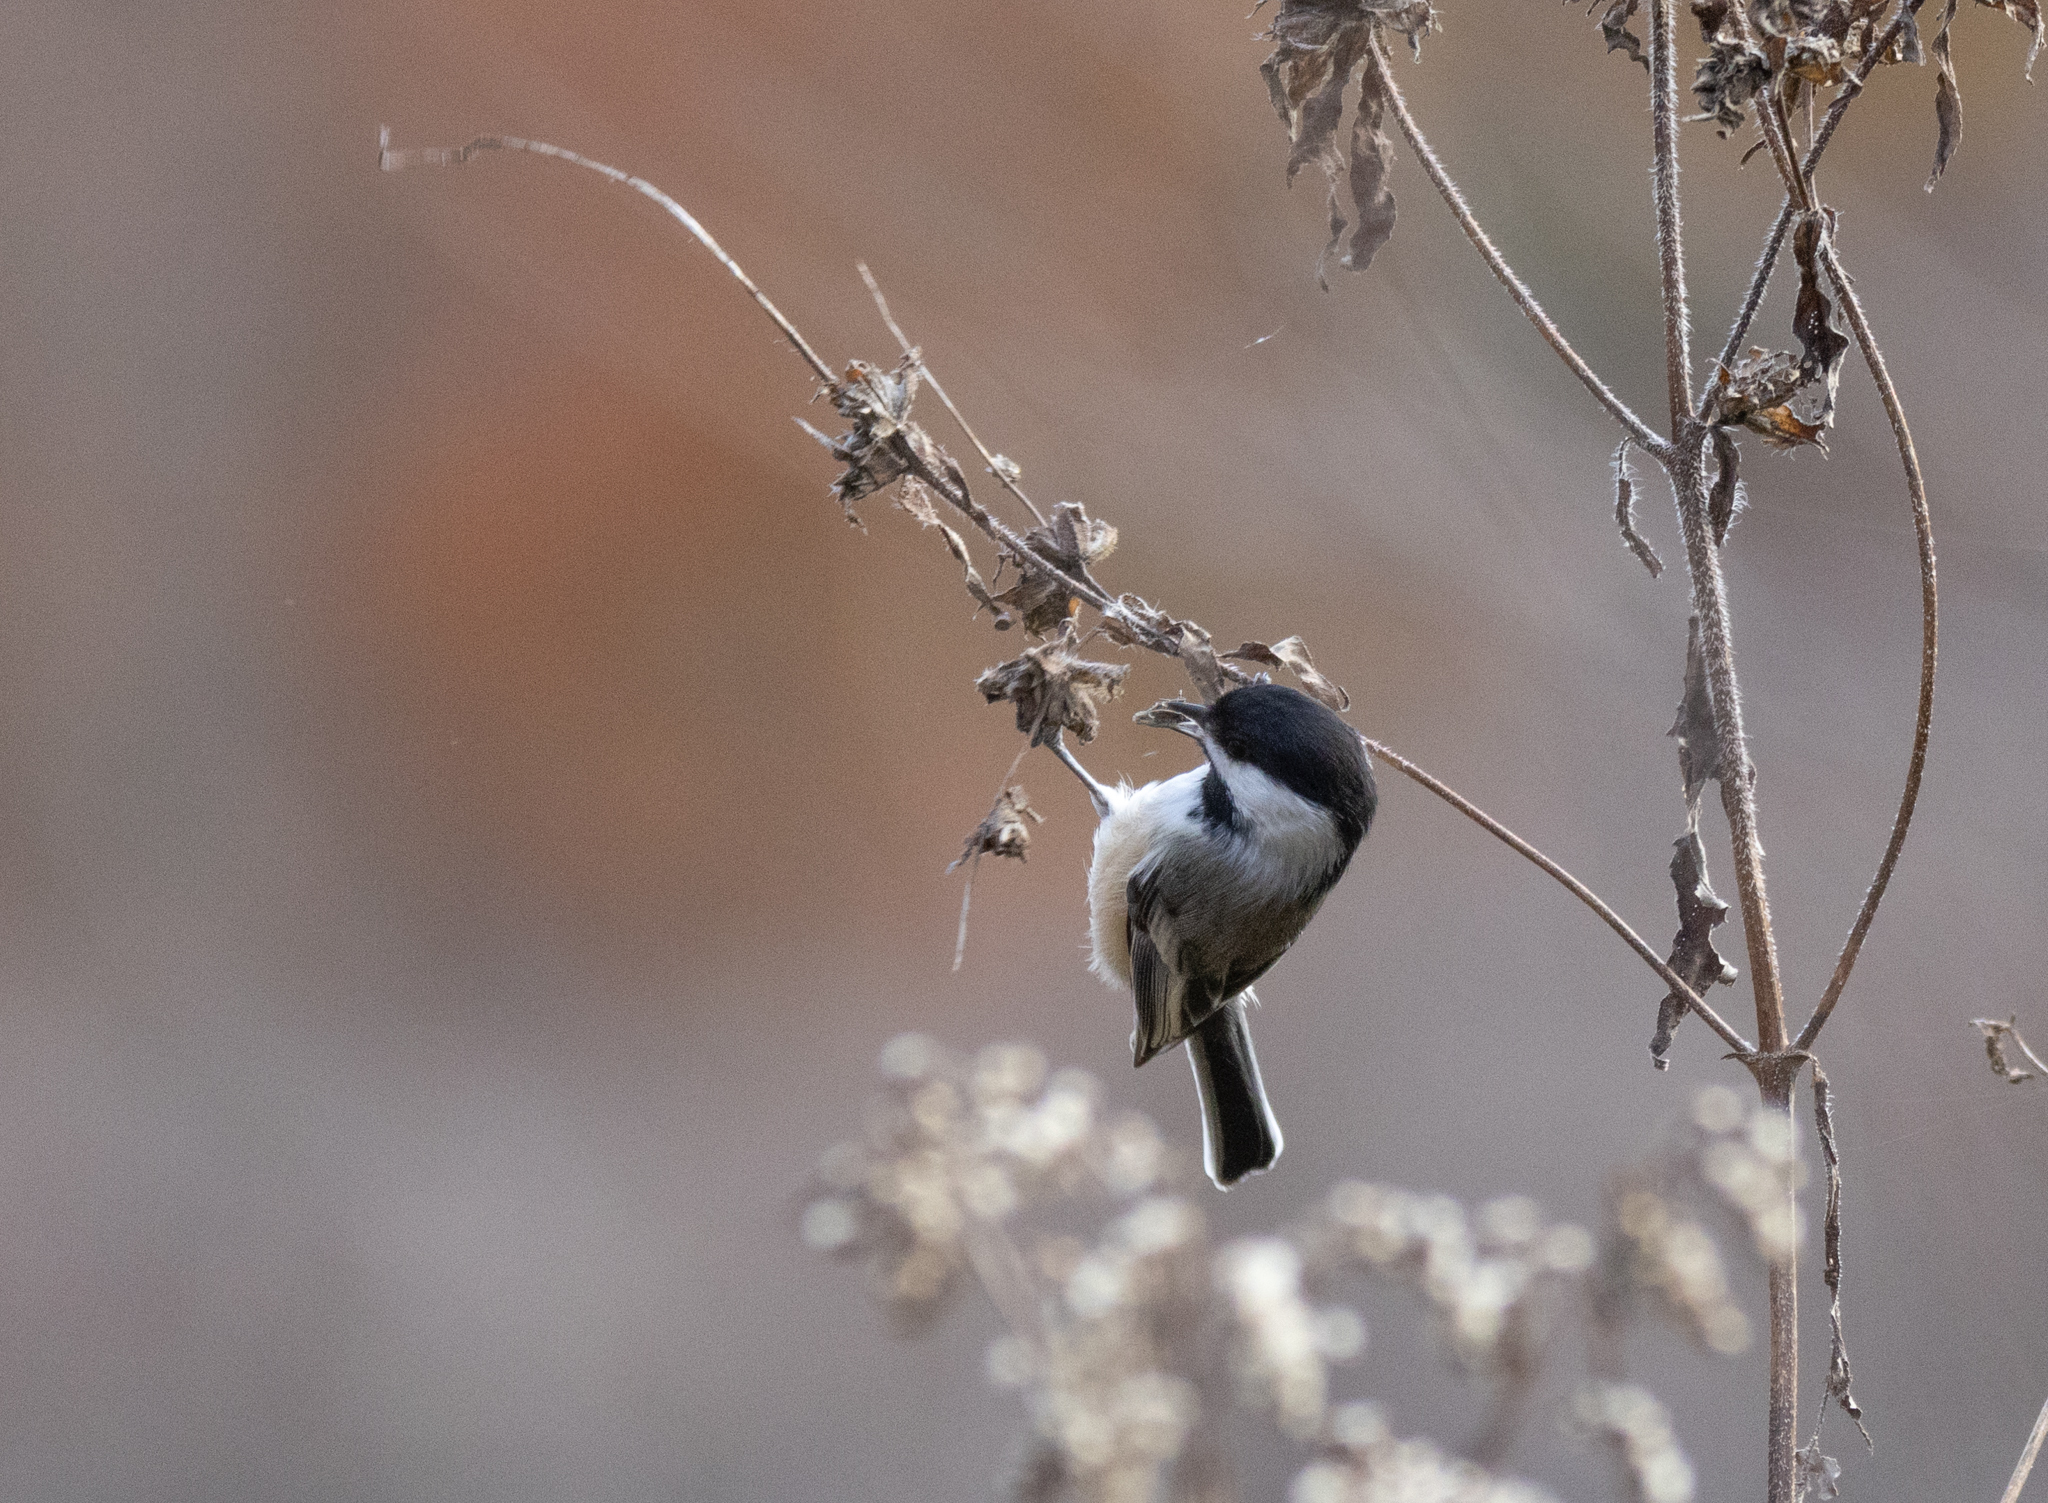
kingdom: Animalia
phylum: Chordata
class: Aves
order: Passeriformes
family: Paridae
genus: Poecile
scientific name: Poecile atricapillus
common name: Black-capped chickadee
